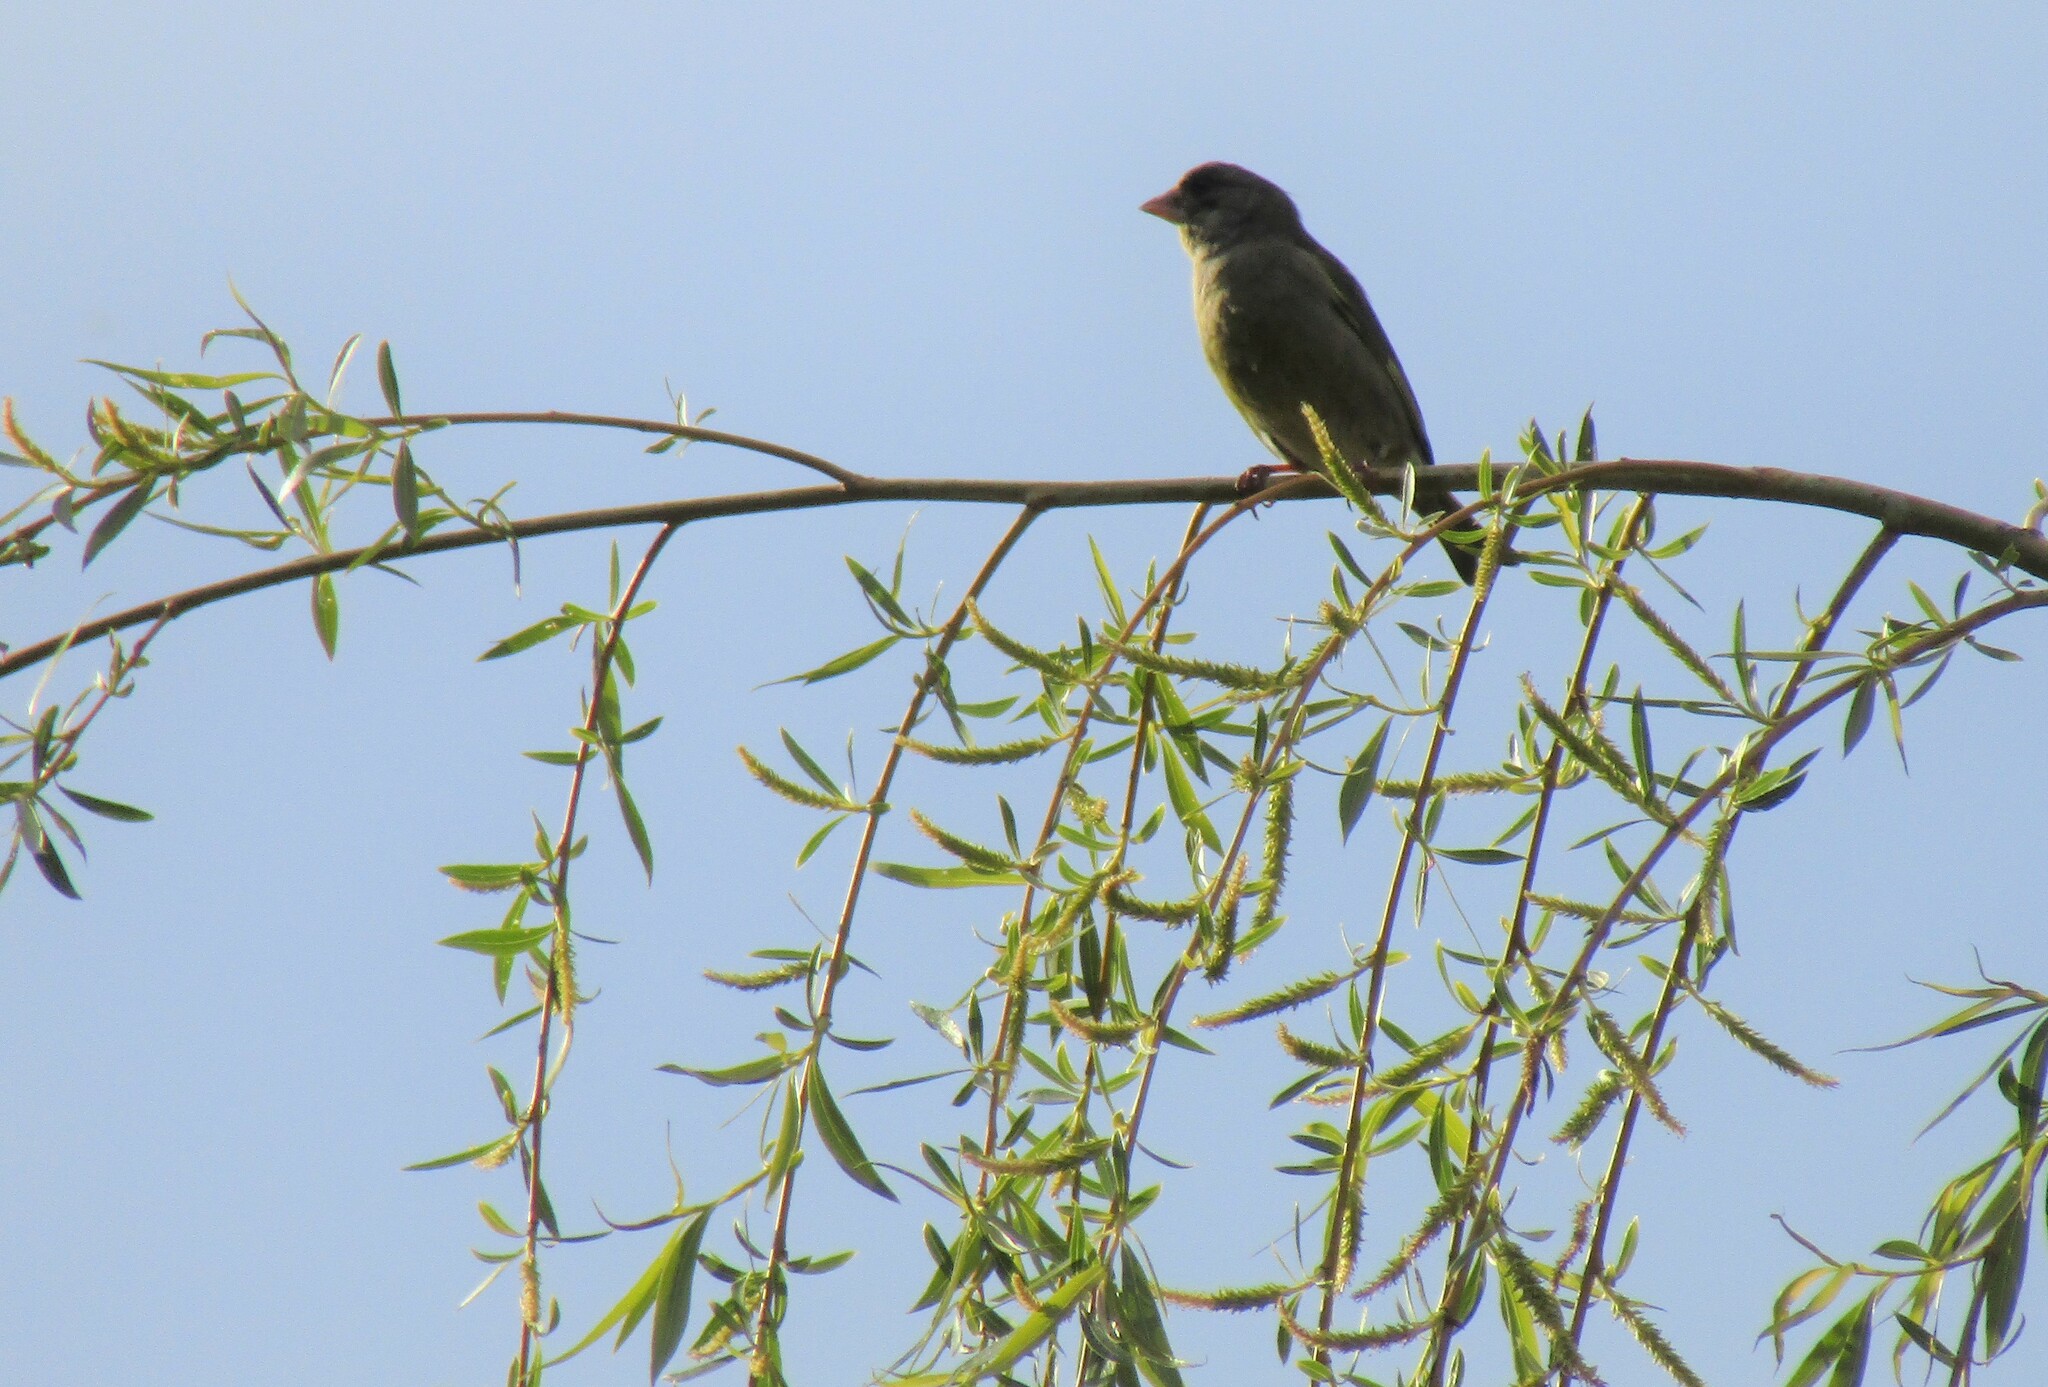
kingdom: Plantae
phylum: Tracheophyta
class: Liliopsida
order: Poales
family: Poaceae
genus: Chloris
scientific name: Chloris chloris
